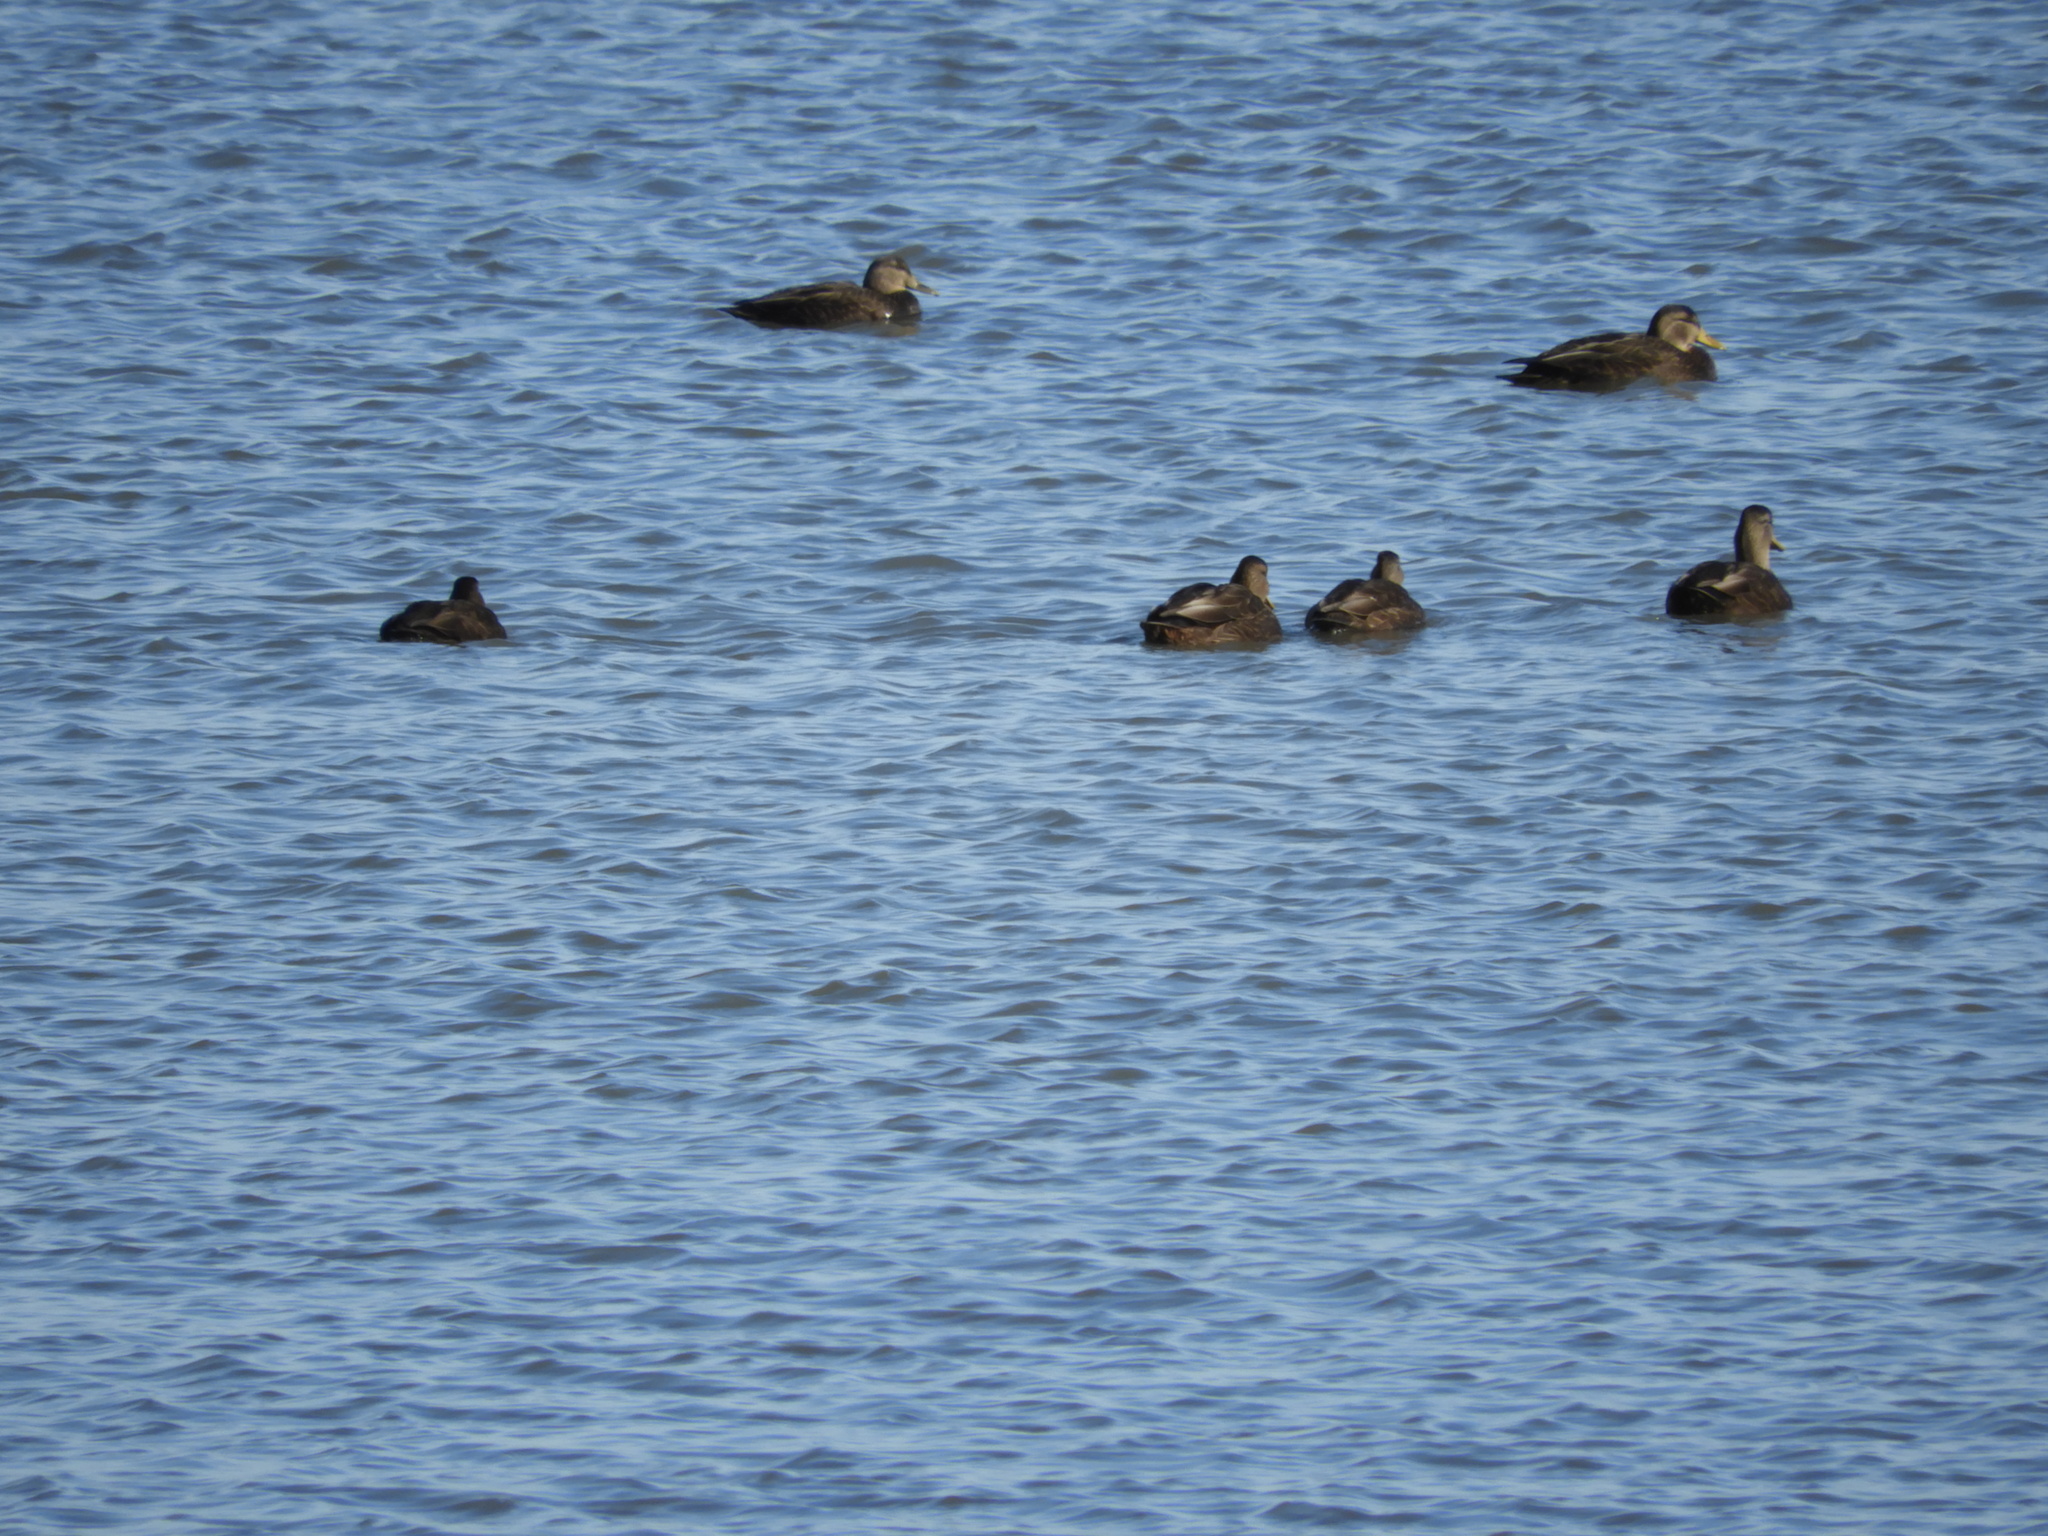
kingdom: Animalia
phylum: Chordata
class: Aves
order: Anseriformes
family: Anatidae
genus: Anas
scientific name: Anas rubripes
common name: American black duck
